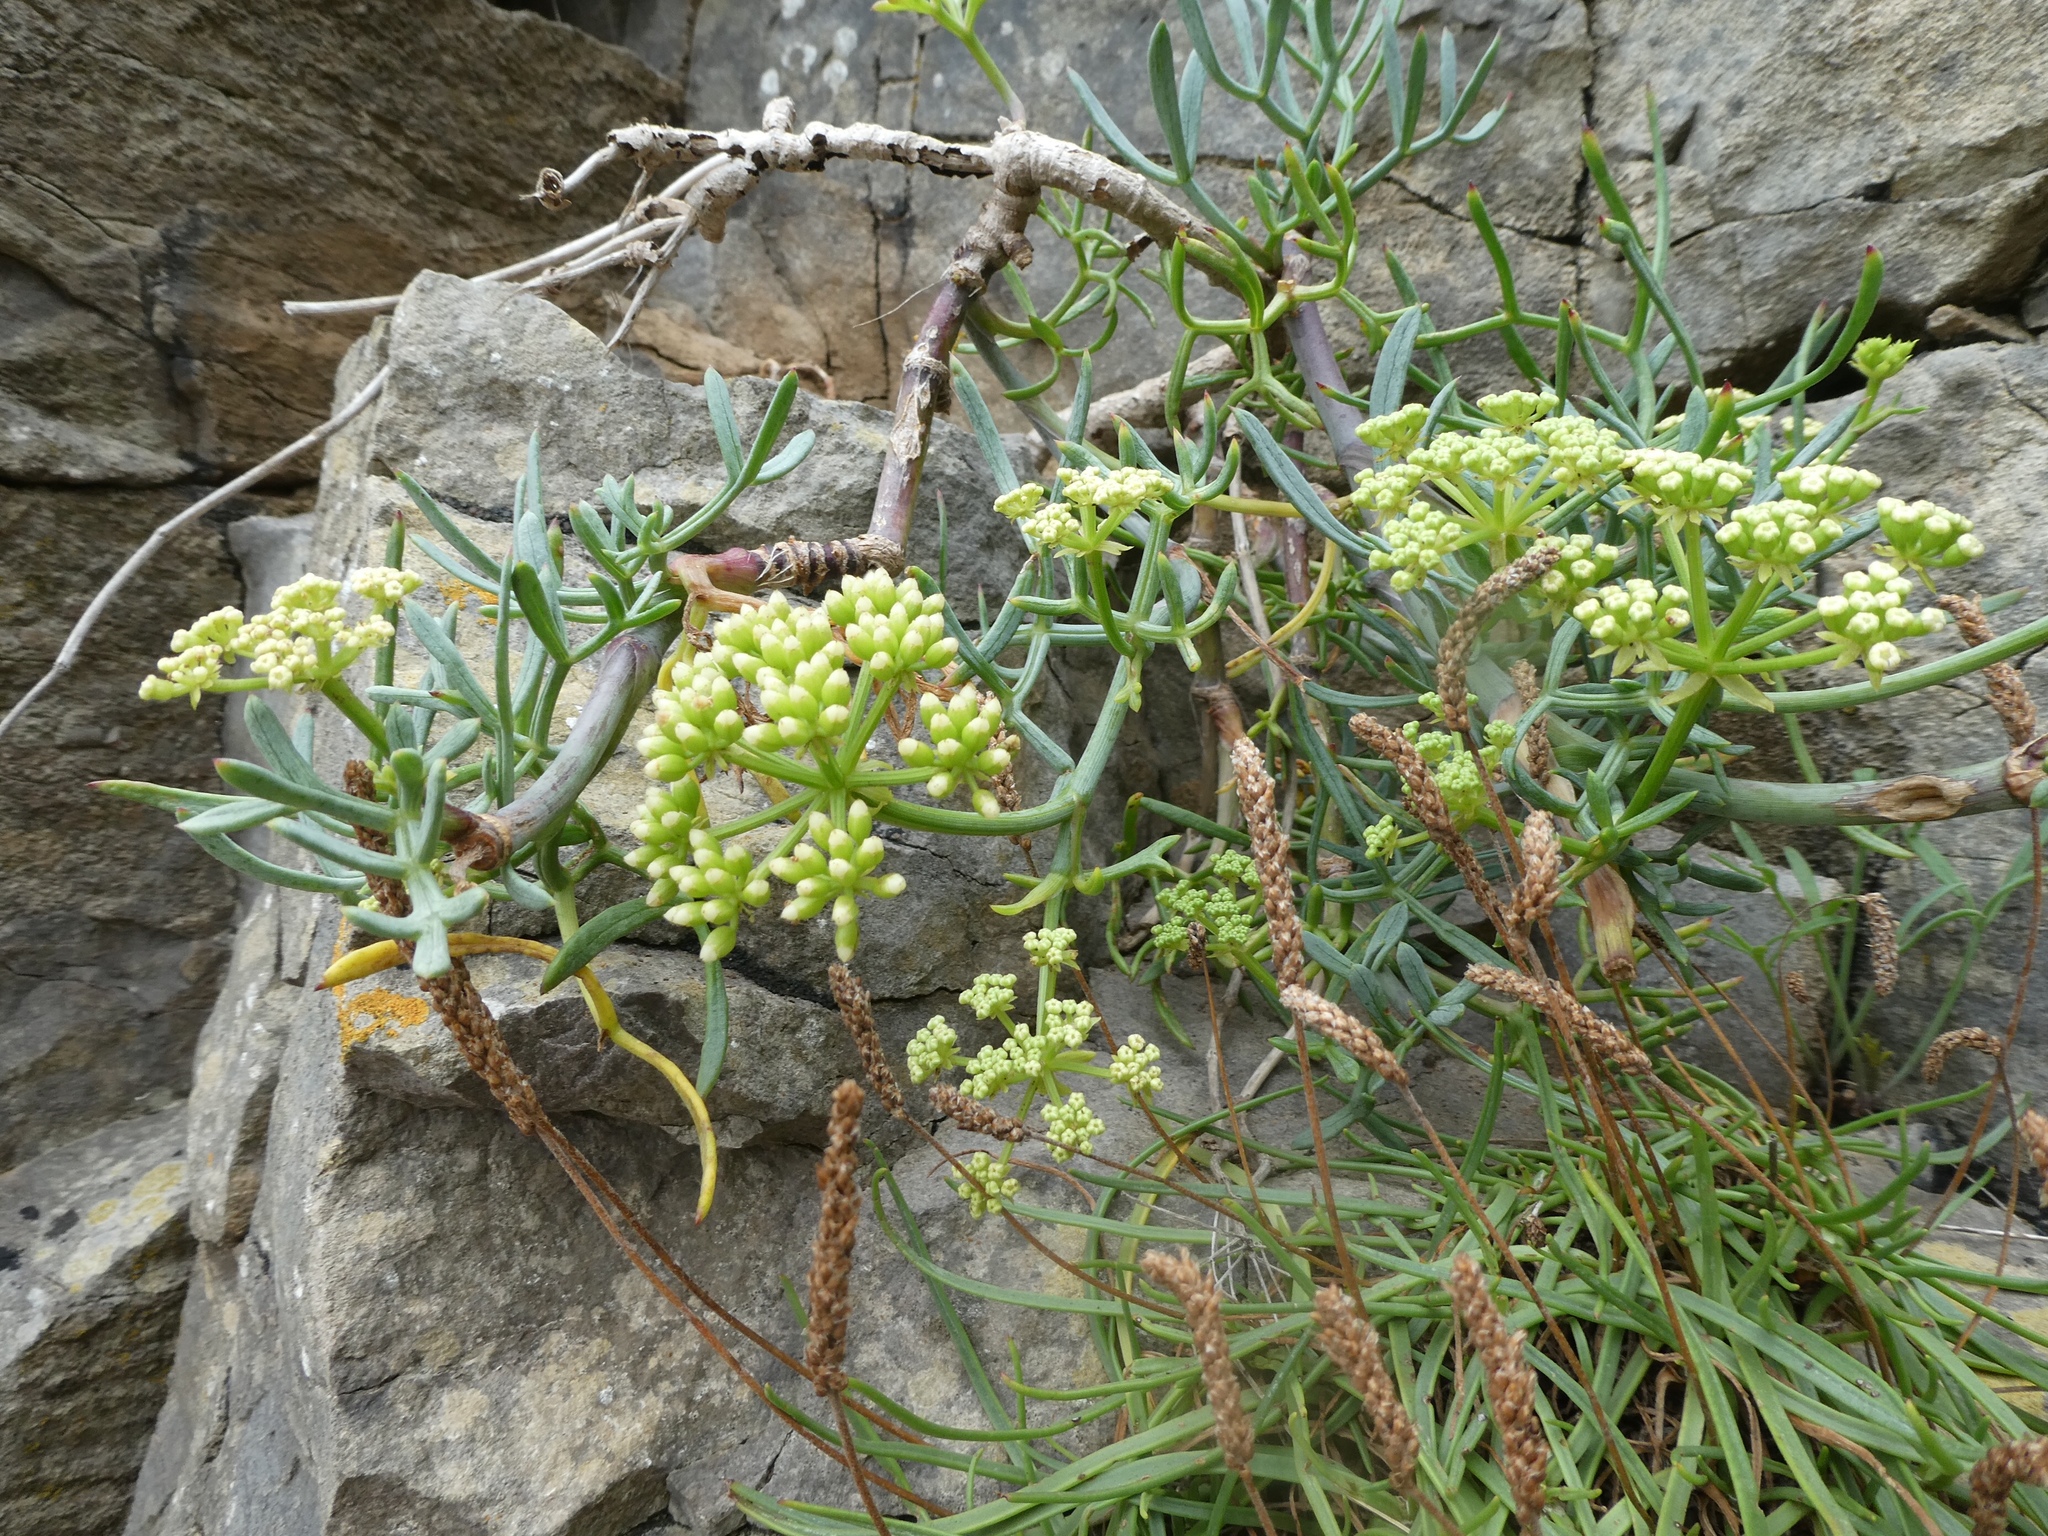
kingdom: Plantae
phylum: Tracheophyta
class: Magnoliopsida
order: Apiales
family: Apiaceae
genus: Crithmum
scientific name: Crithmum maritimum
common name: Rock samphire
